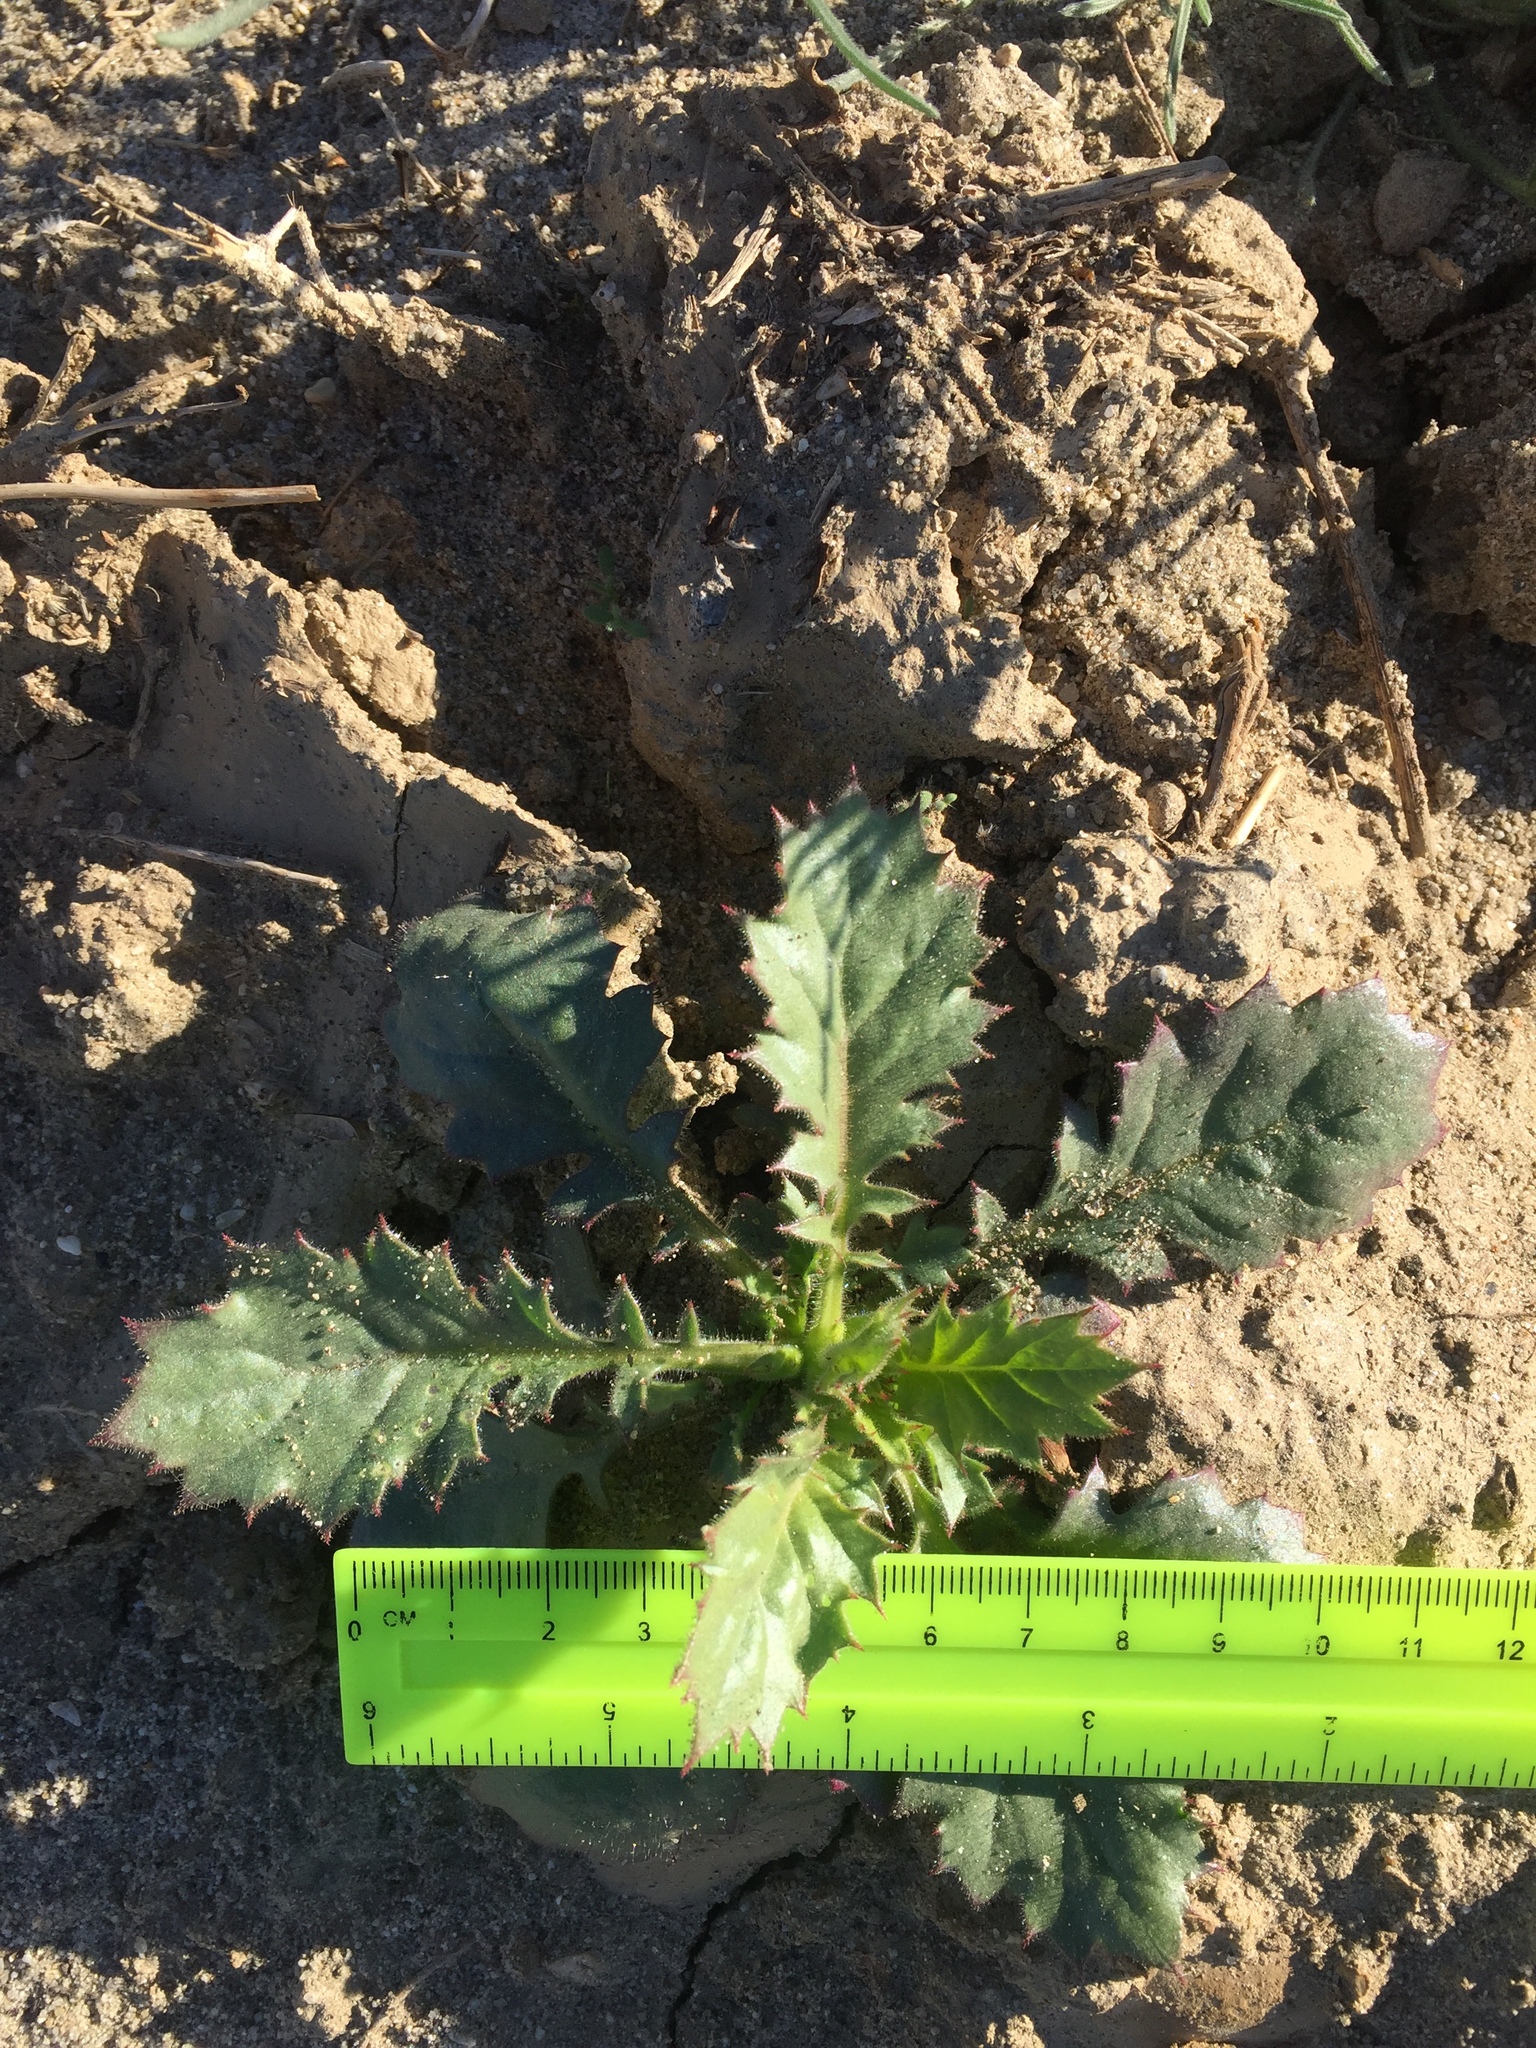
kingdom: Plantae
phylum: Tracheophyta
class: Magnoliopsida
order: Ericales
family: Polemoniaceae
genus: Aliciella
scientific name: Aliciella latifolia
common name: Broad-leaf gilia
